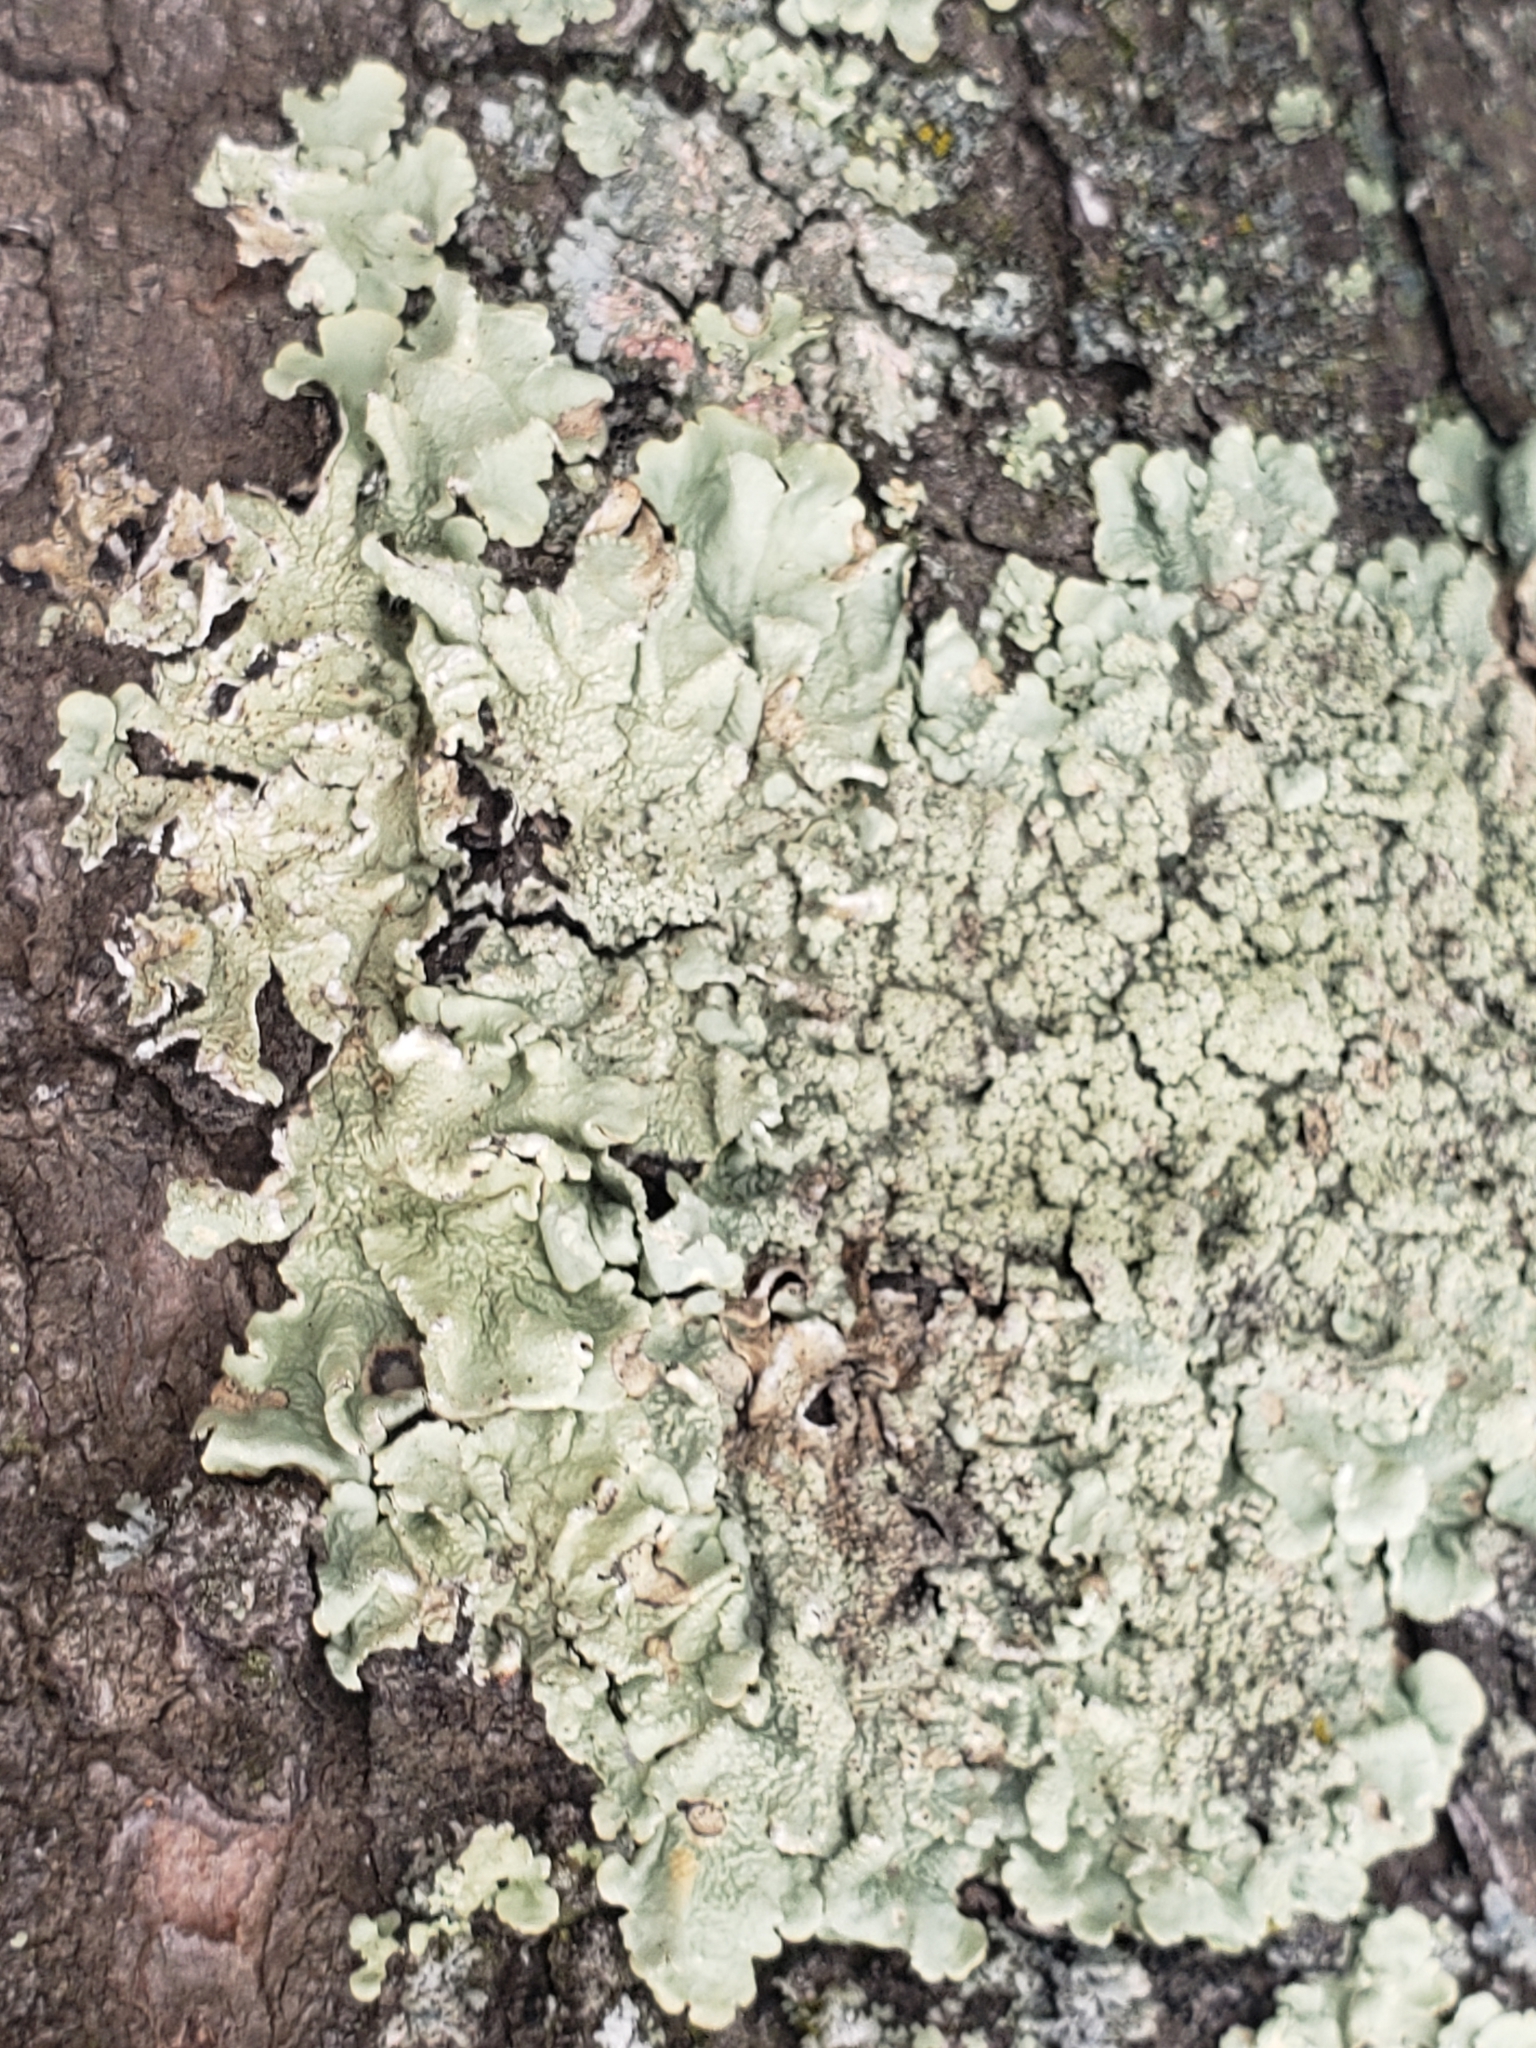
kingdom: Fungi
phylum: Ascomycota
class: Lecanoromycetes
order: Lecanorales
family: Parmeliaceae
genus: Flavoparmelia
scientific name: Flavoparmelia caperata
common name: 40-mile per hour lichen
